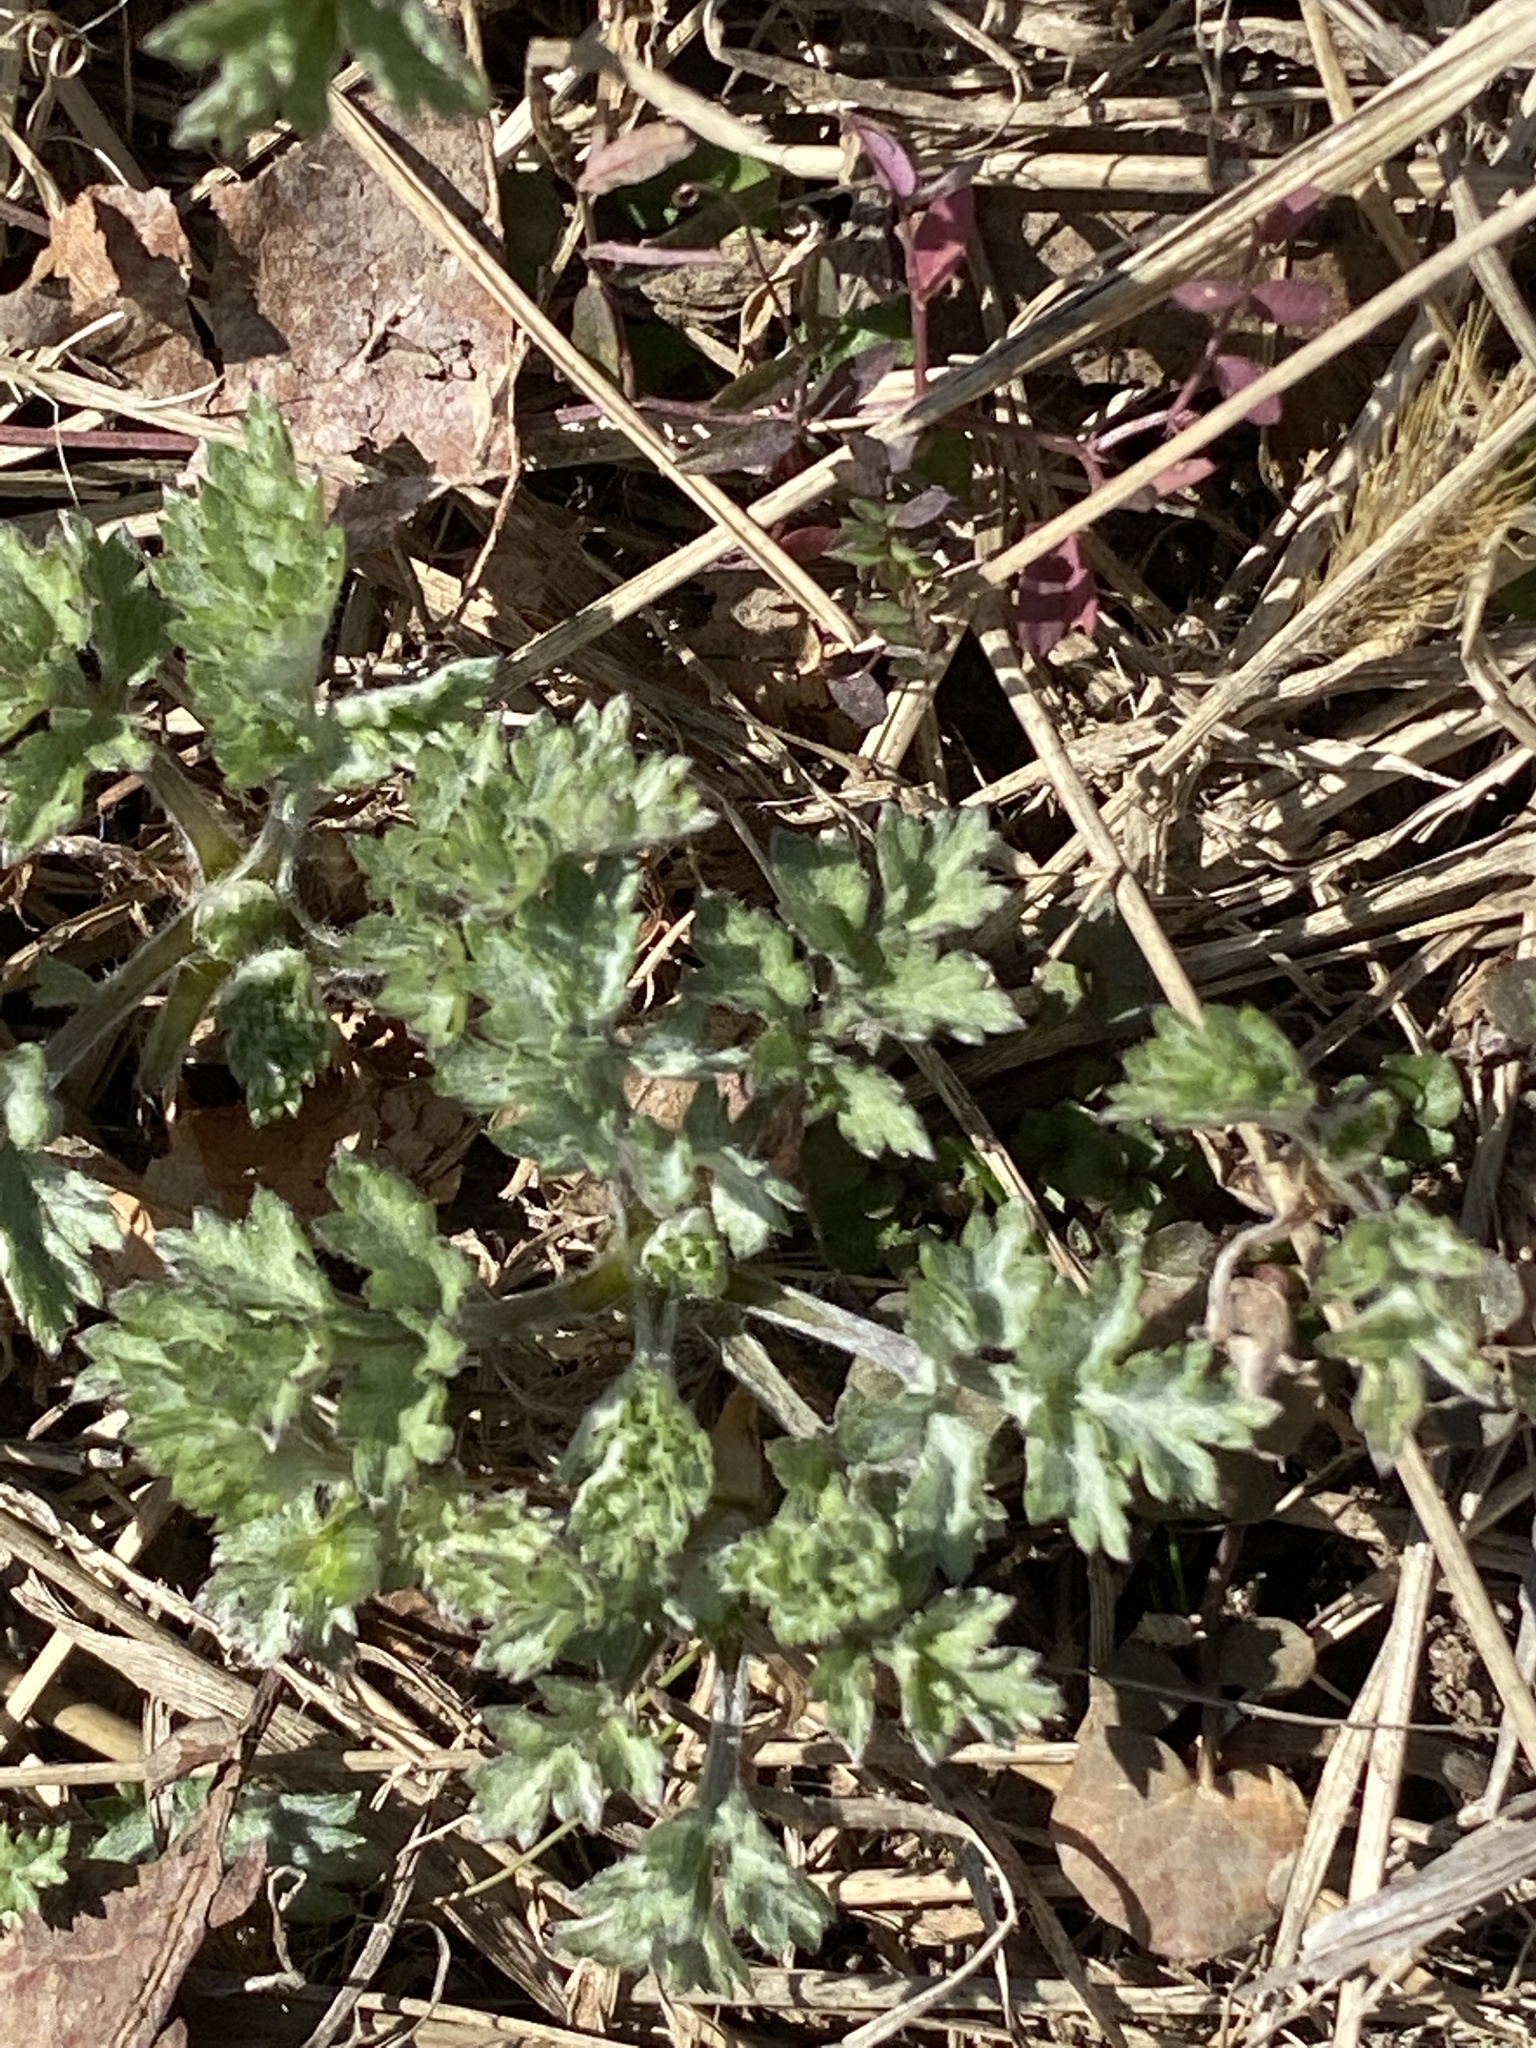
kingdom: Plantae
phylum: Tracheophyta
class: Magnoliopsida
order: Asterales
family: Asteraceae
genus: Artemisia
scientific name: Artemisia vulgaris
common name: Mugwort
